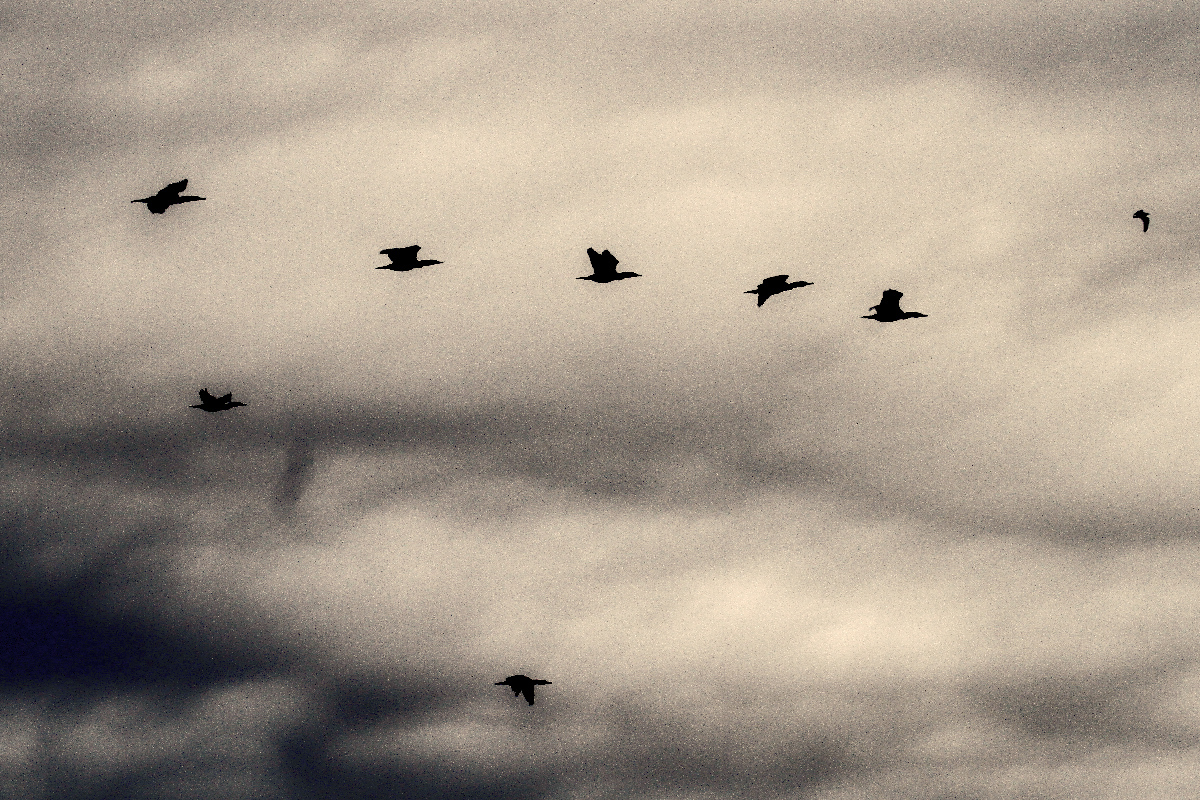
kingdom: Animalia
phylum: Chordata
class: Aves
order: Suliformes
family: Phalacrocoracidae
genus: Phalacrocorax
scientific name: Phalacrocorax auritus
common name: Double-crested cormorant
